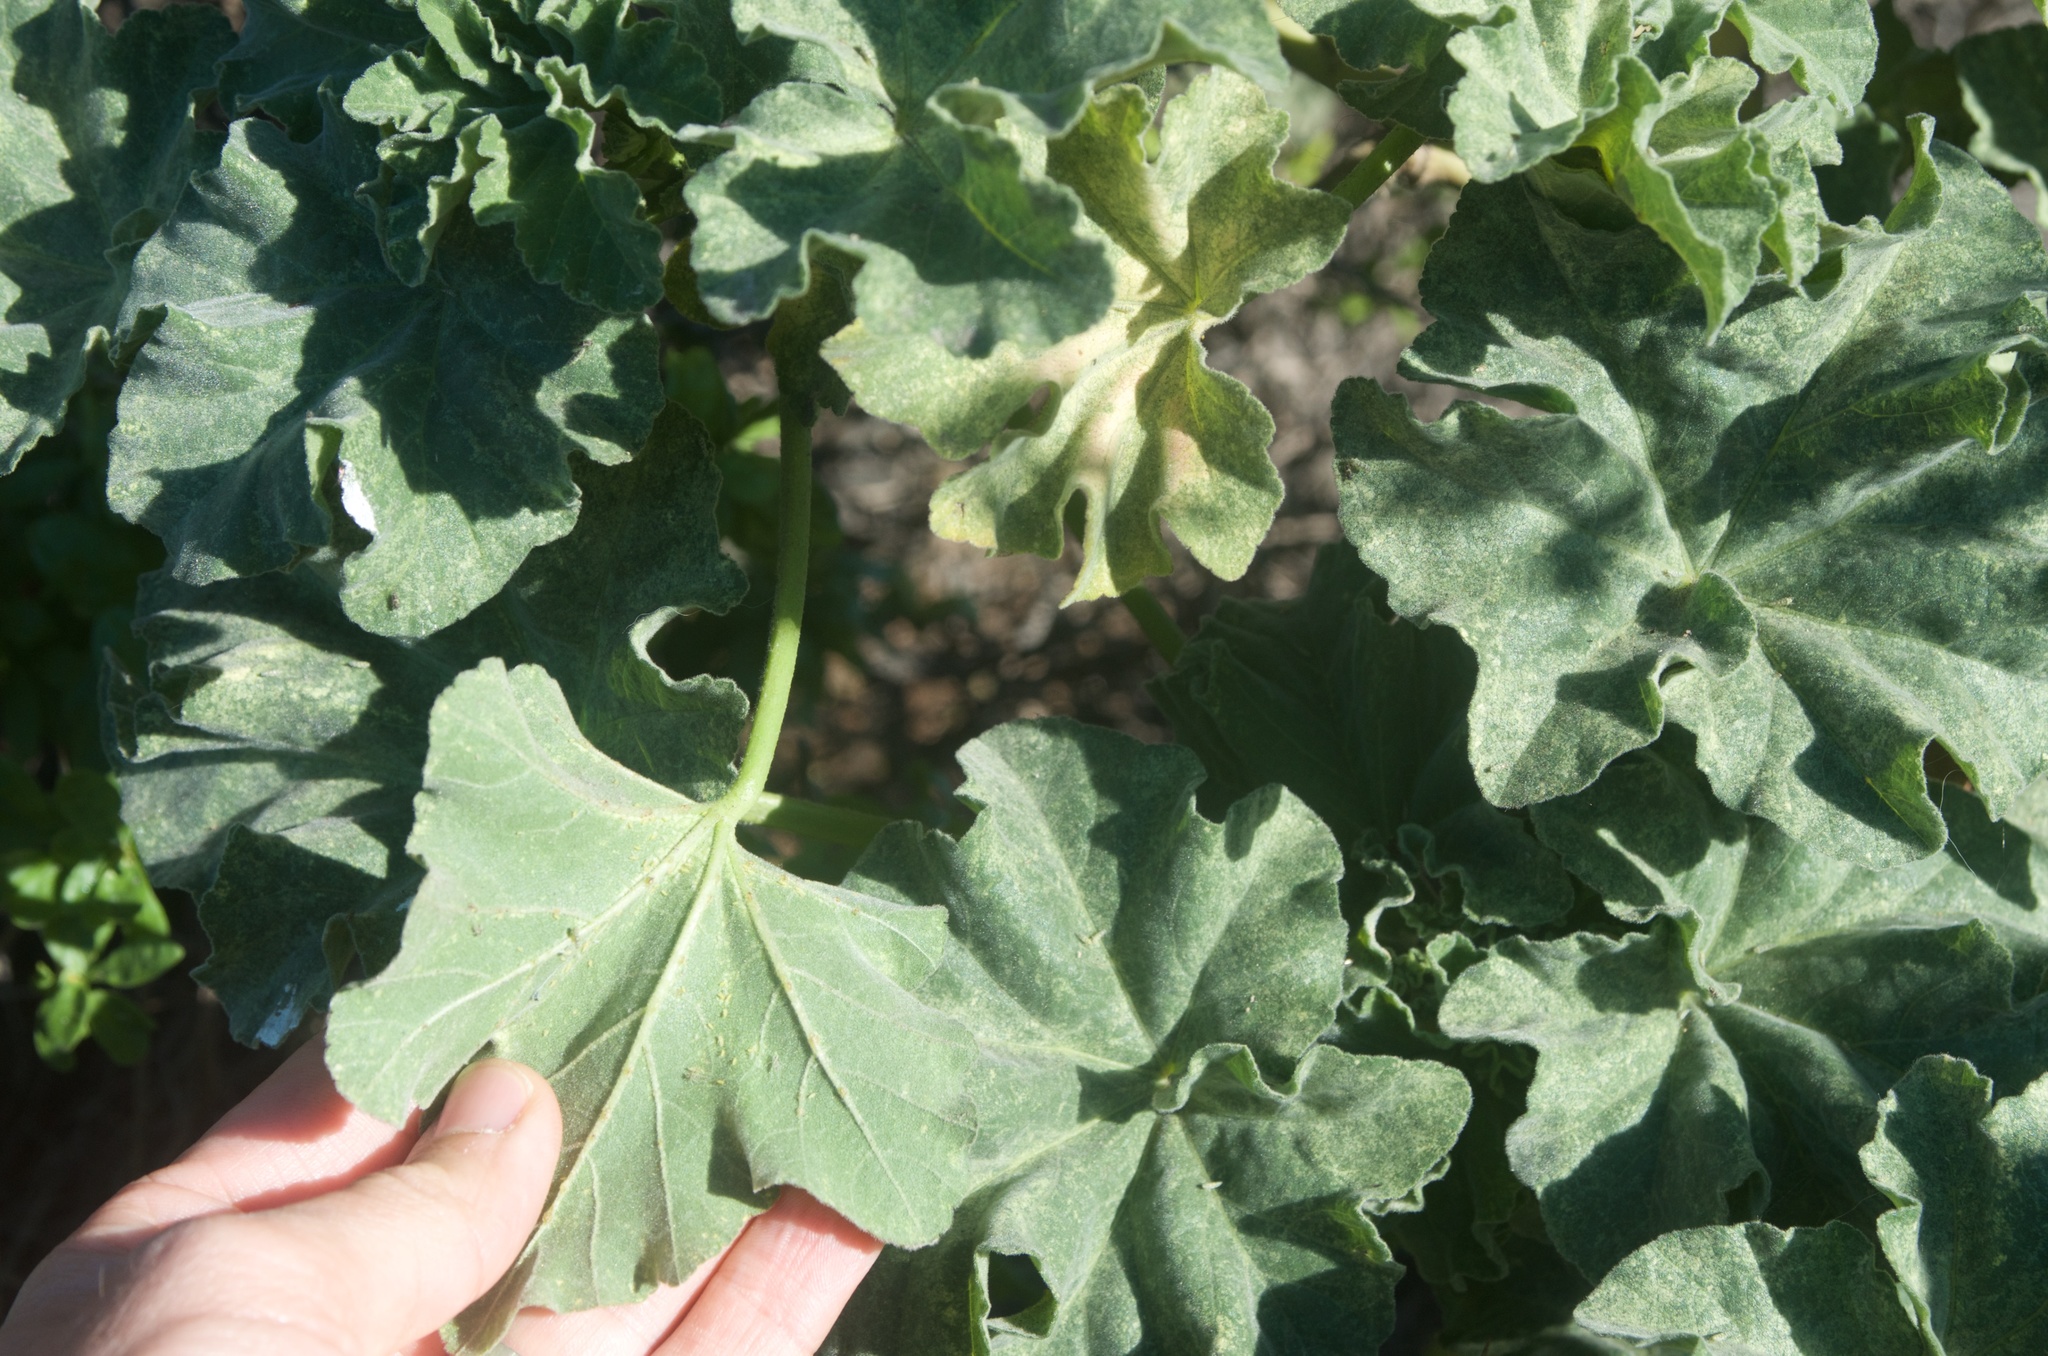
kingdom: Plantae
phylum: Tracheophyta
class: Magnoliopsida
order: Malvales
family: Malvaceae
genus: Malva
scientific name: Malva arborea
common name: Tree mallow
